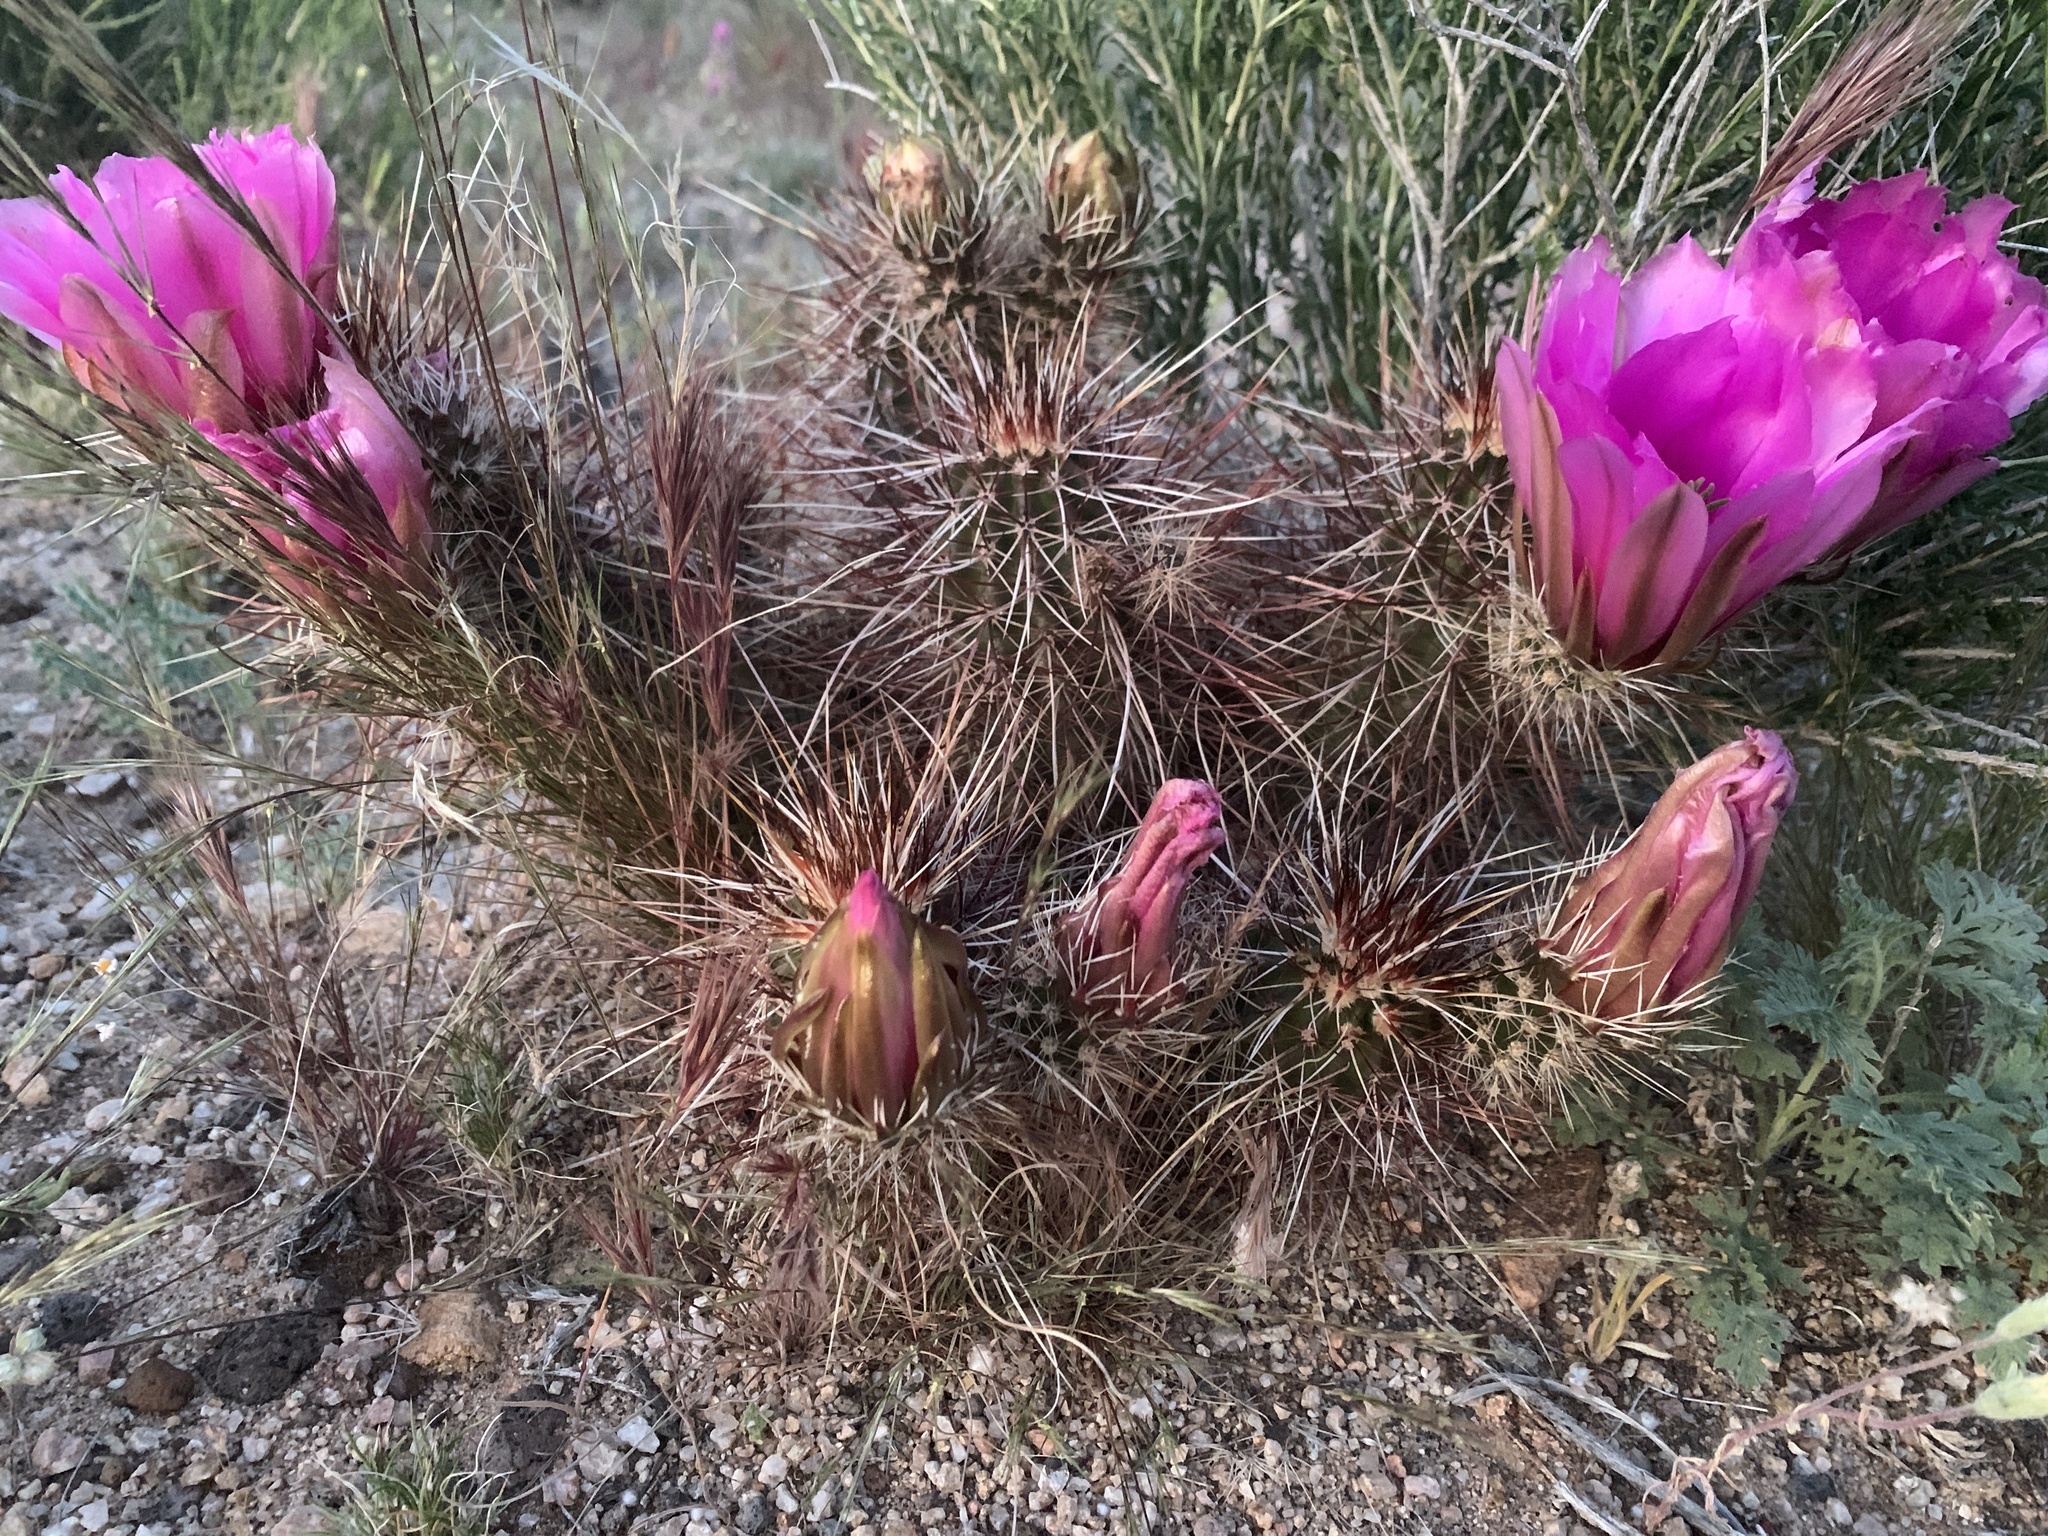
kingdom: Plantae
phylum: Tracheophyta
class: Magnoliopsida
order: Caryophyllales
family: Cactaceae
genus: Echinocereus
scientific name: Echinocereus engelmannii
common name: Engelmann's hedgehog cactus
